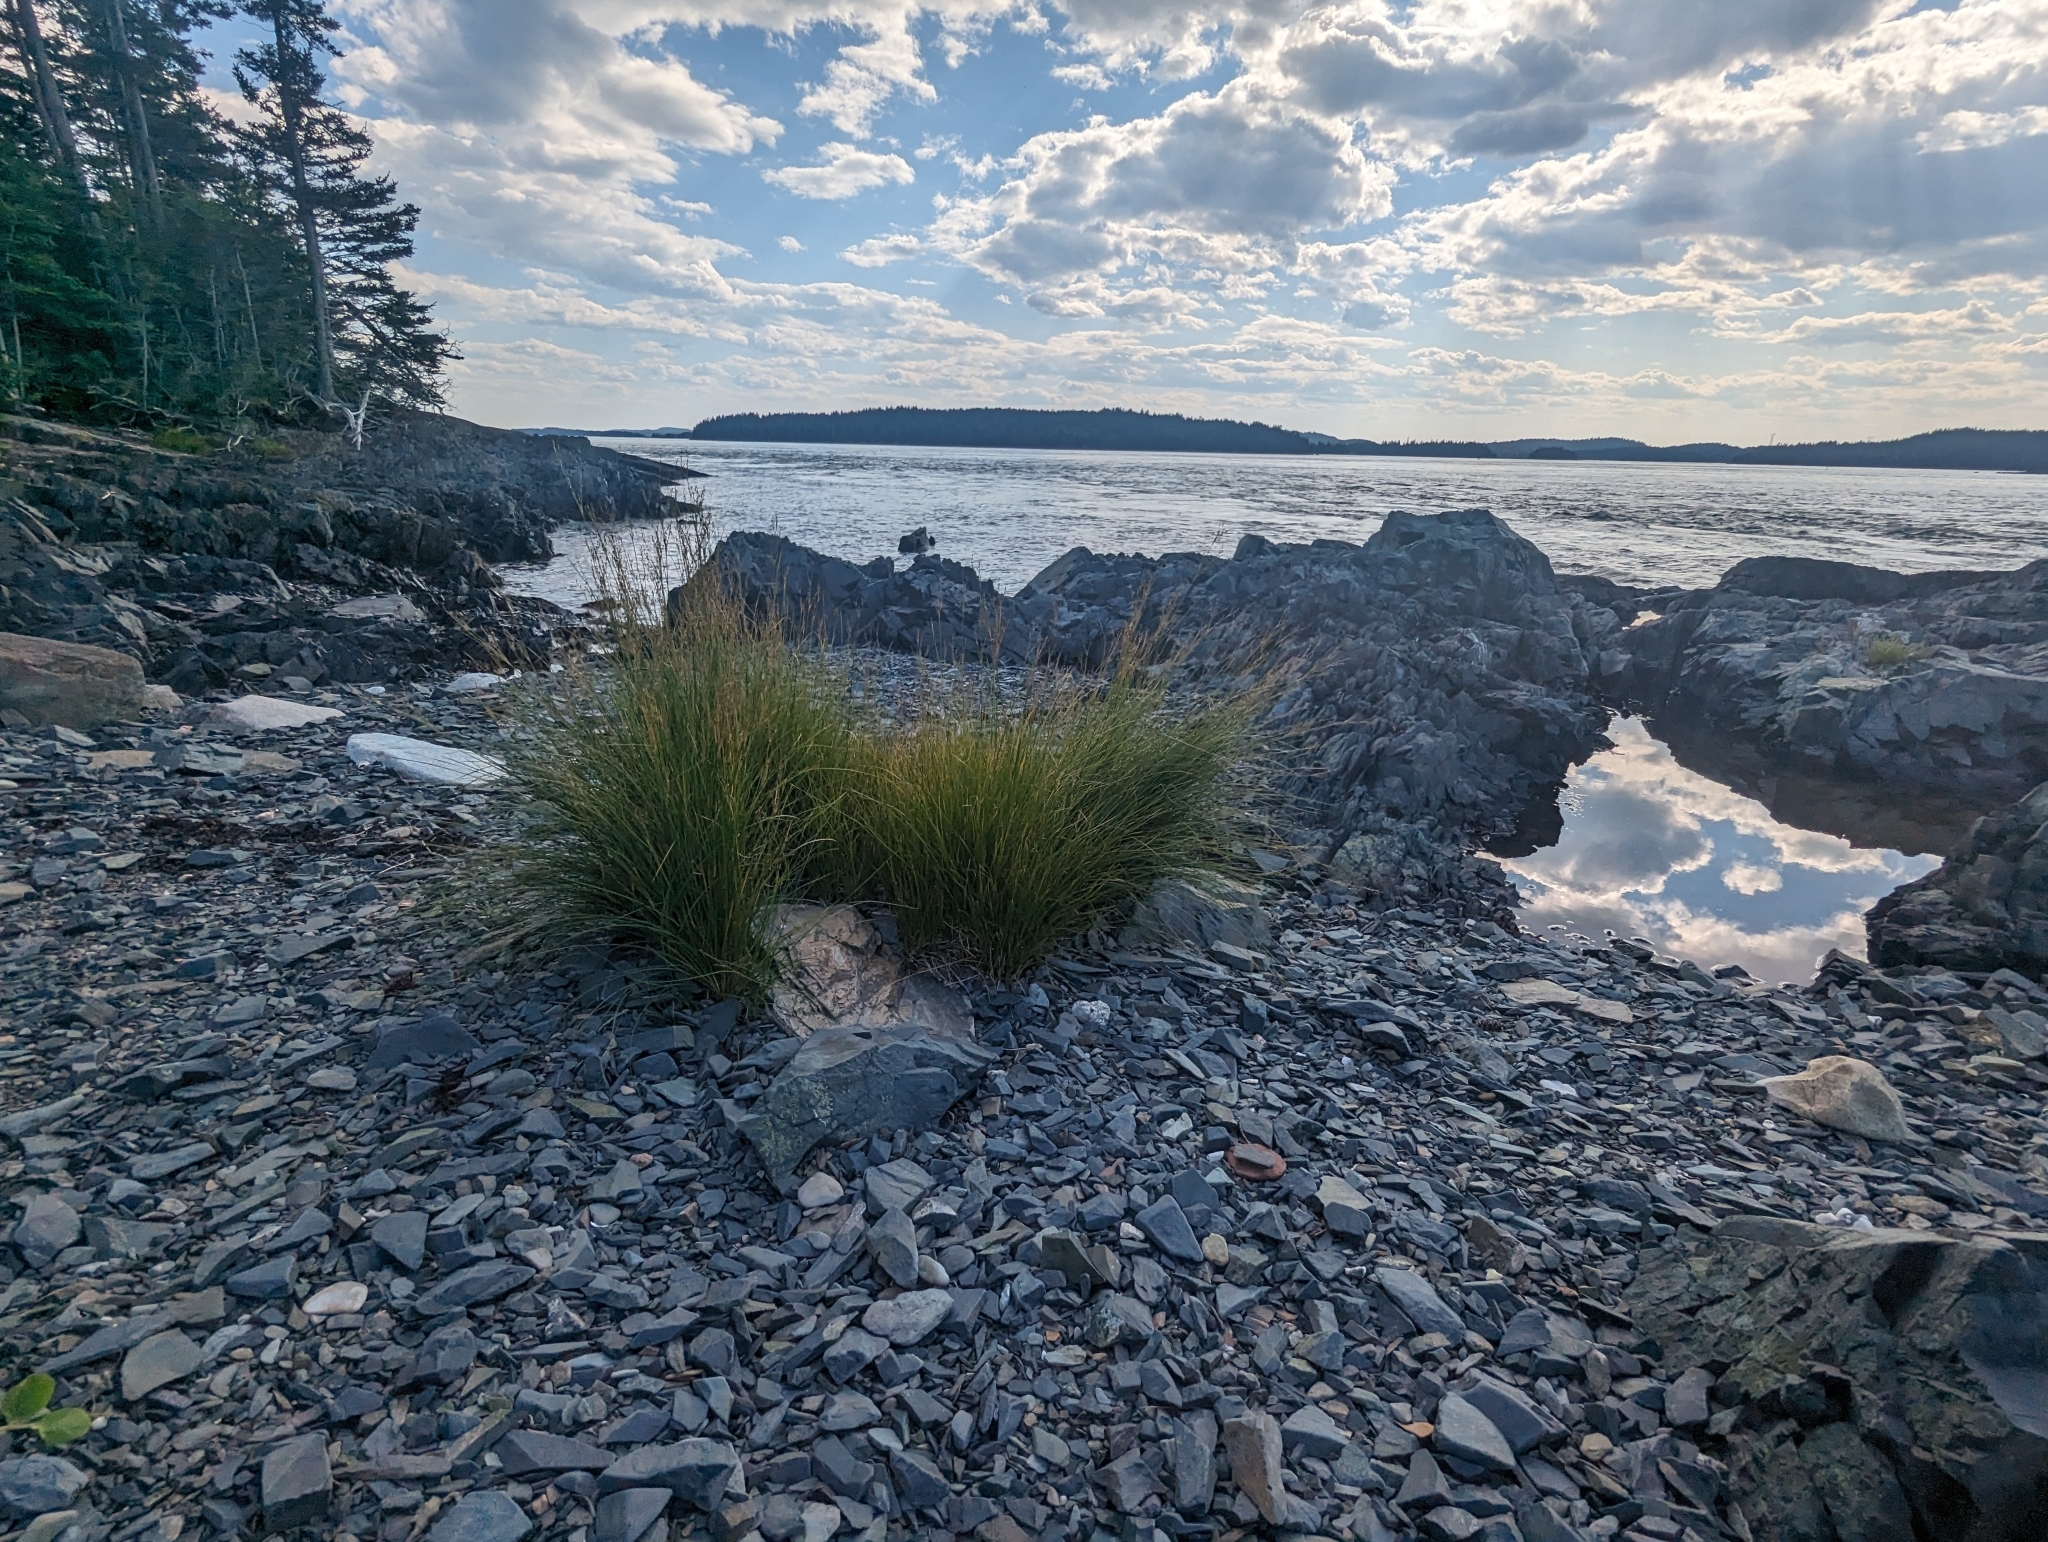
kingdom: Plantae
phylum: Tracheophyta
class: Liliopsida
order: Poales
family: Juncaceae
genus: Juncus
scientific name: Juncus gerardi
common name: Saltmarsh rush
